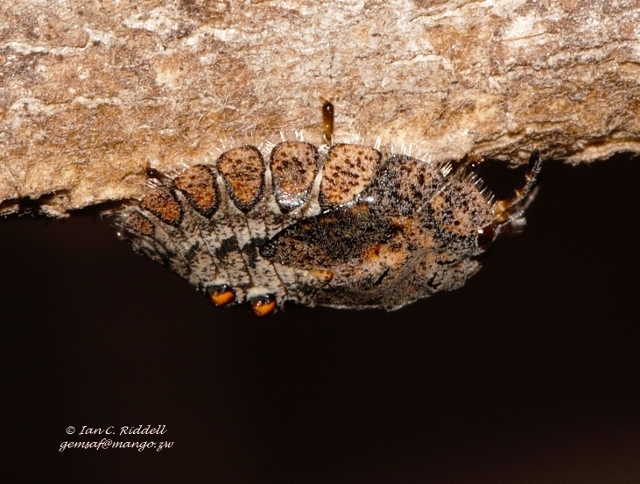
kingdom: Animalia
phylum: Arthropoda
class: Insecta
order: Hemiptera
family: Plataspidae
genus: Libyaspis
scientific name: Libyaspis
